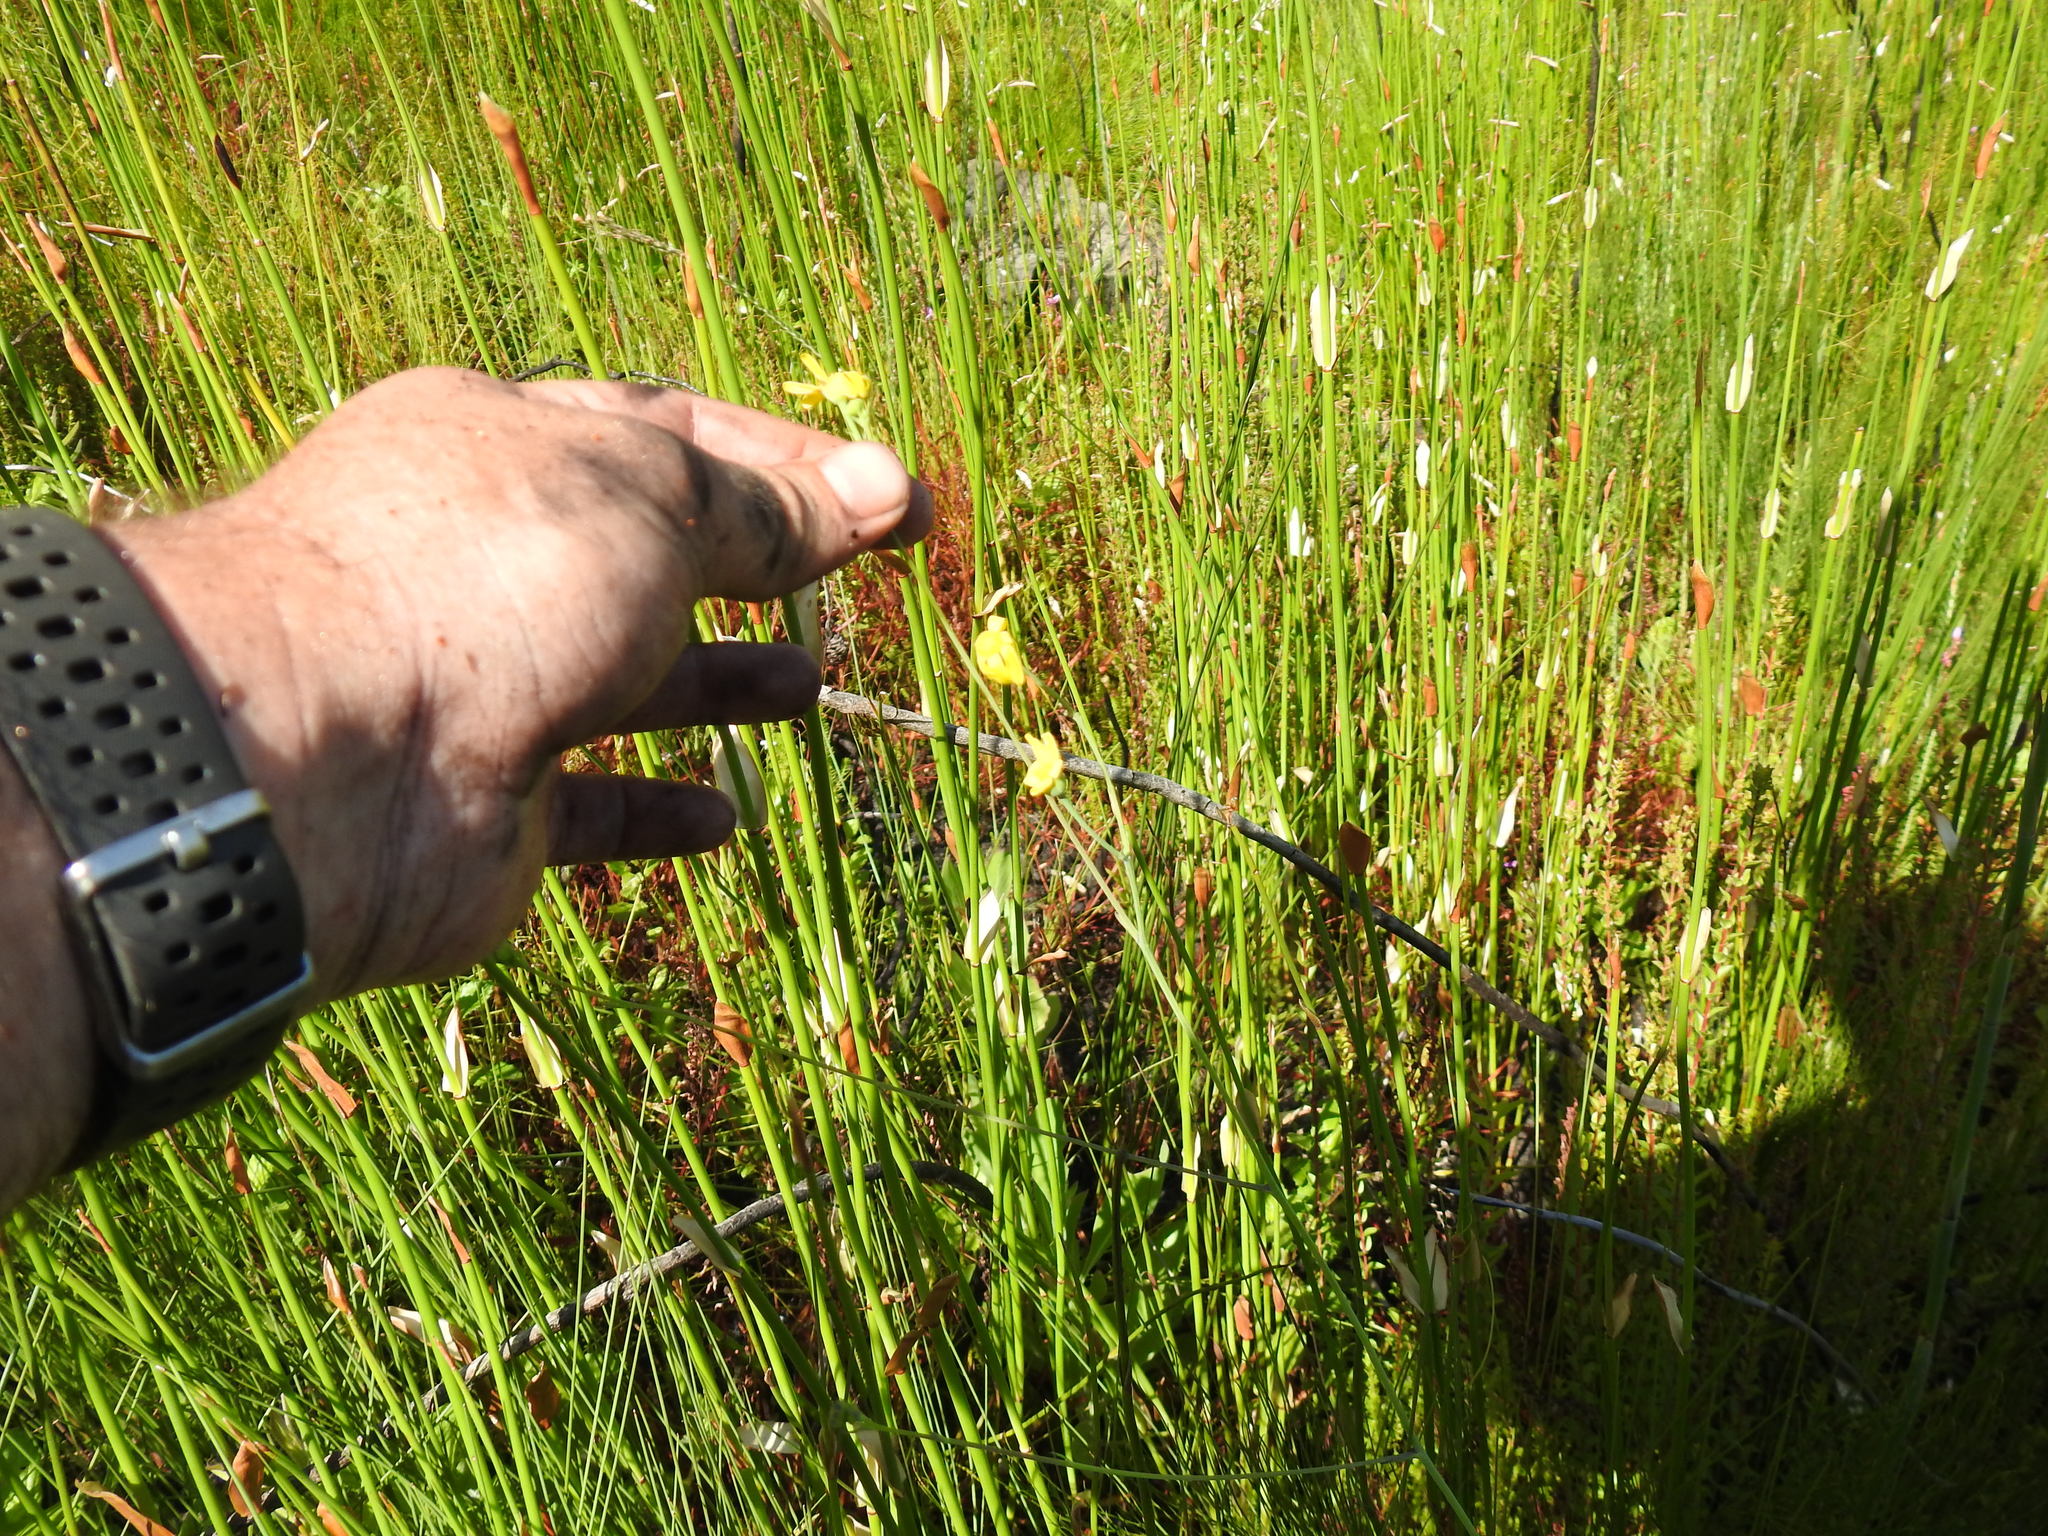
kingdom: Plantae
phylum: Tracheophyta
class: Magnoliopsida
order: Asterales
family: Asteraceae
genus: Othonna
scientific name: Othonna quinquedentata
